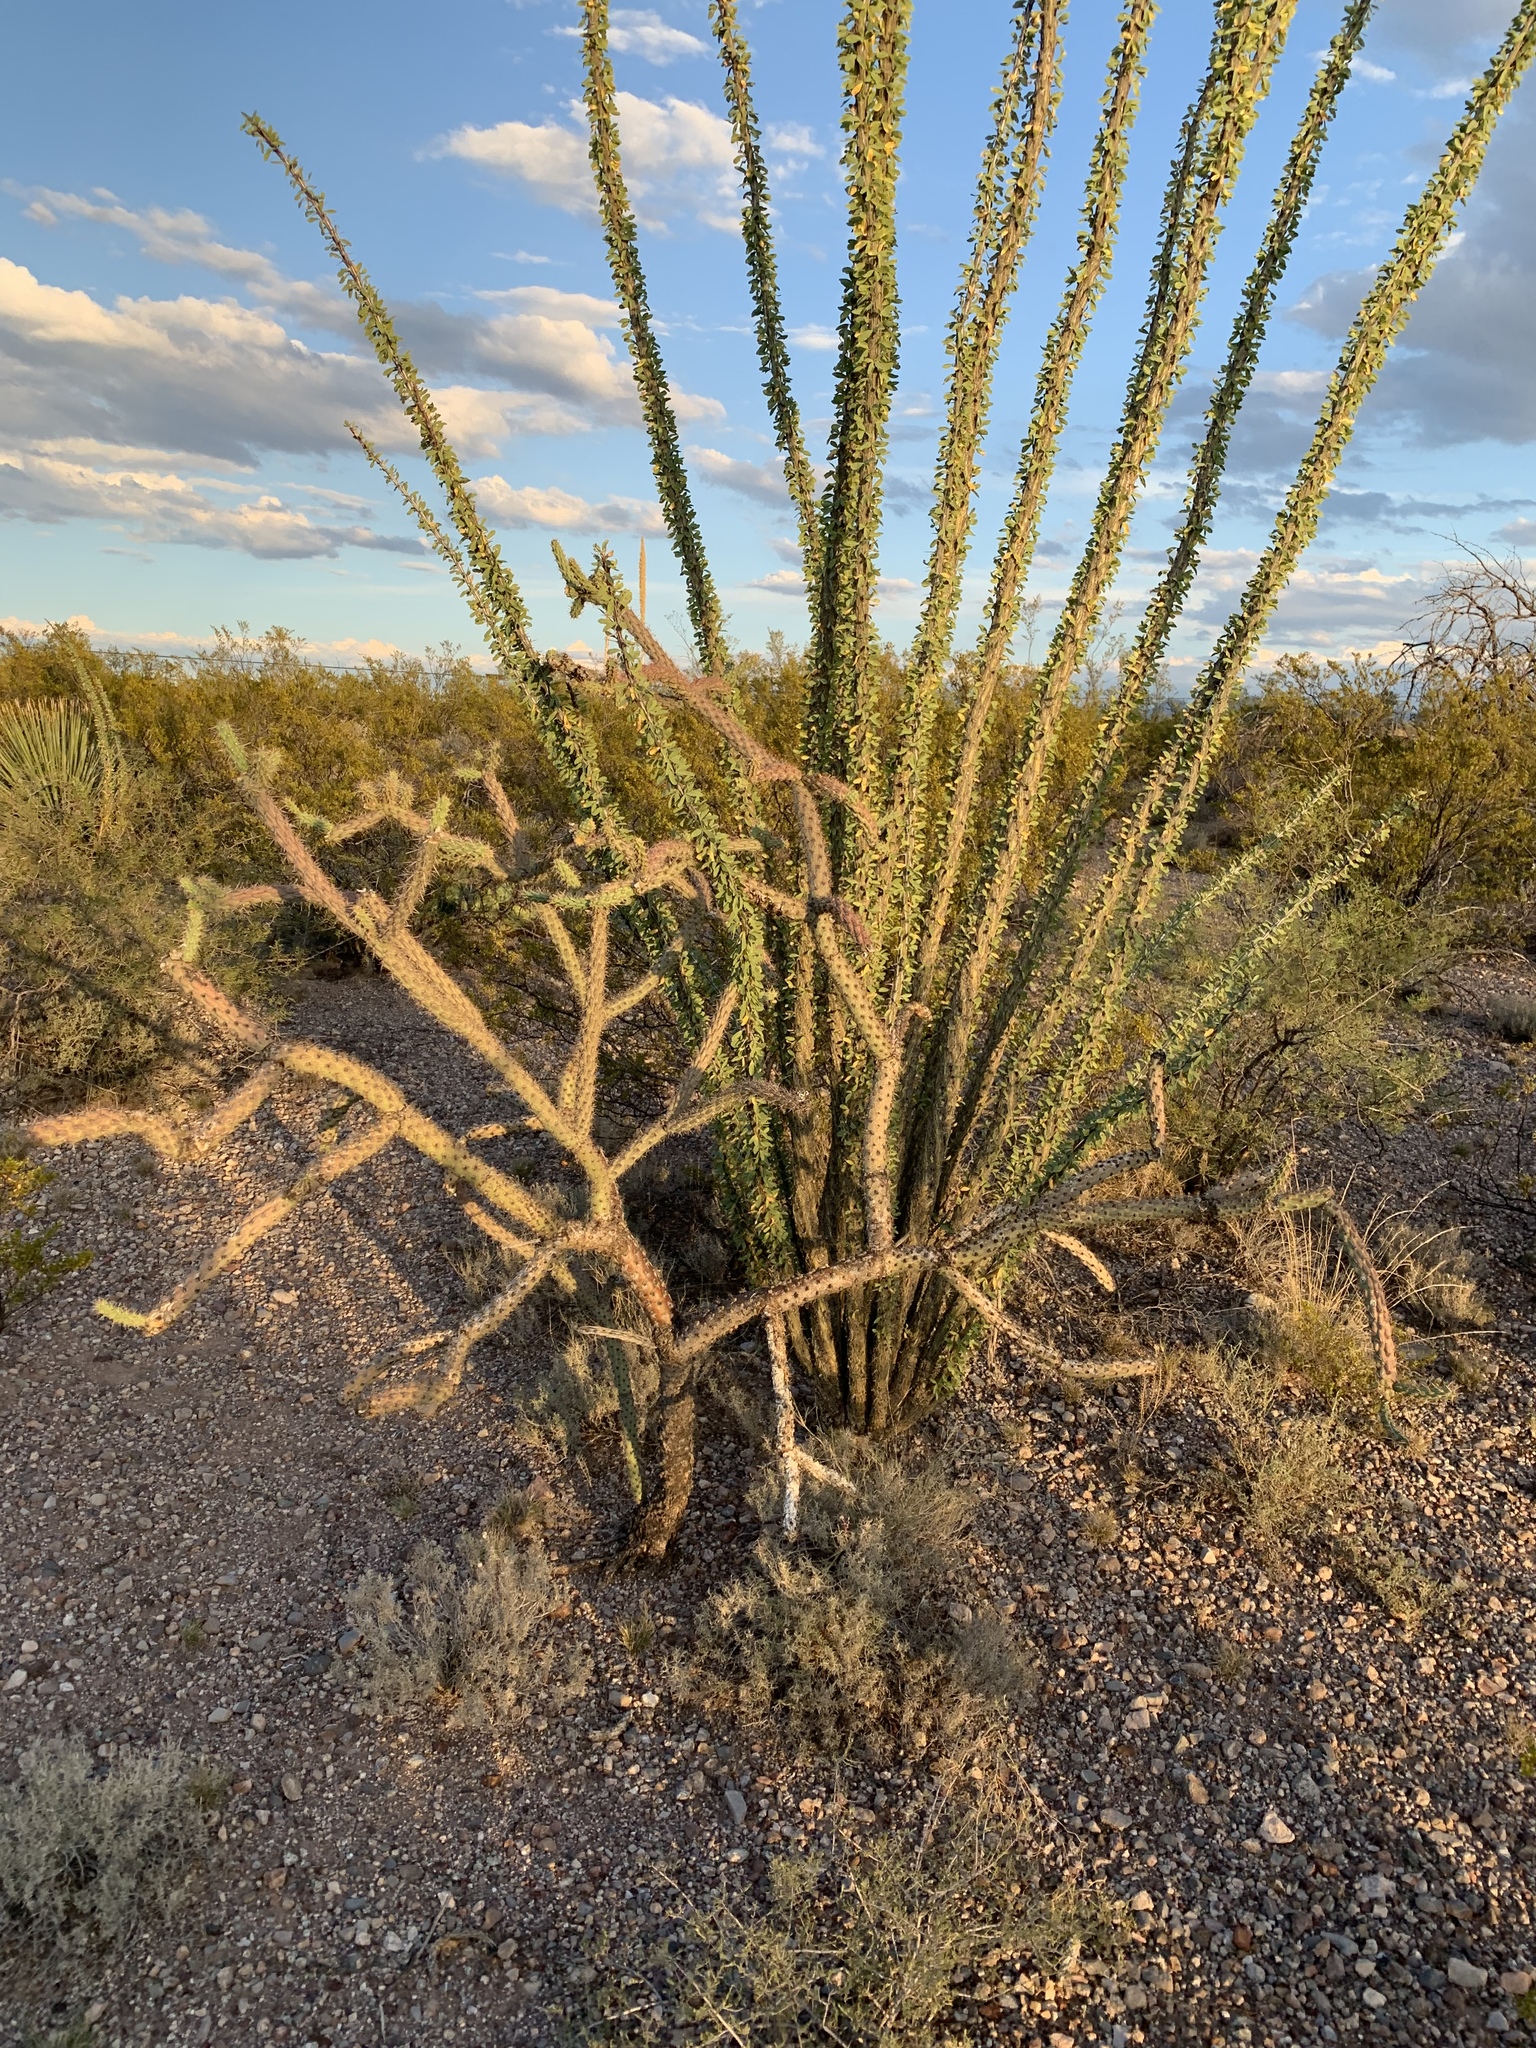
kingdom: Plantae
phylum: Tracheophyta
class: Magnoliopsida
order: Caryophyllales
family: Cactaceae
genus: Cylindropuntia
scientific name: Cylindropuntia acanthocarpa
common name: Buckhorn cholla
